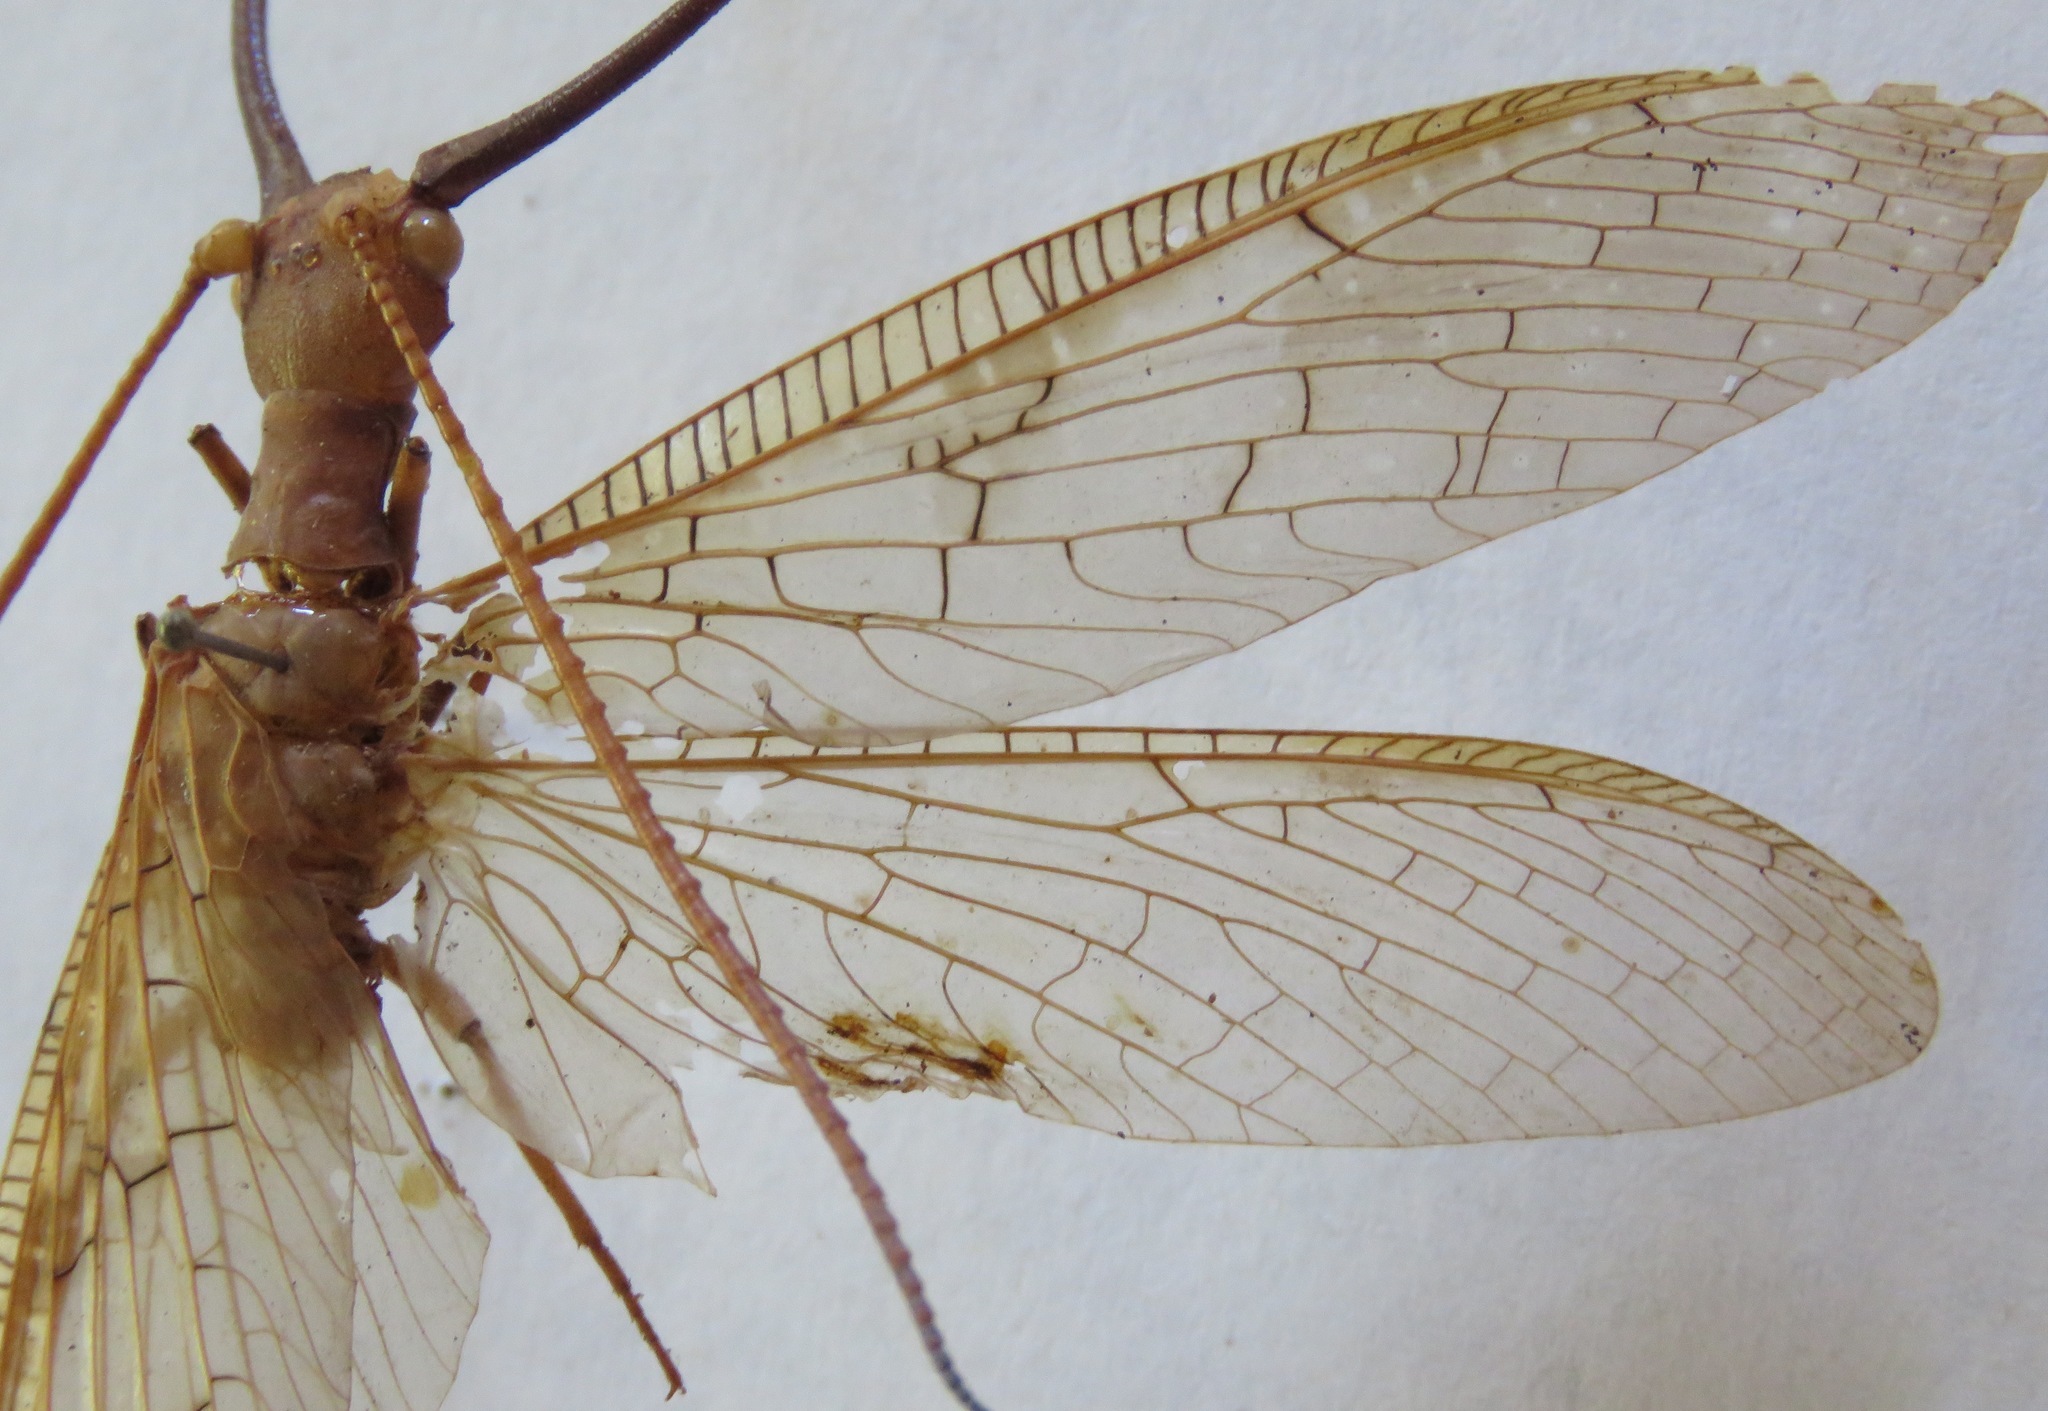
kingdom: Animalia
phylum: Arthropoda
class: Insecta
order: Megaloptera
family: Corydalidae
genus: Corydalus
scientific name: Corydalus flavicornis
